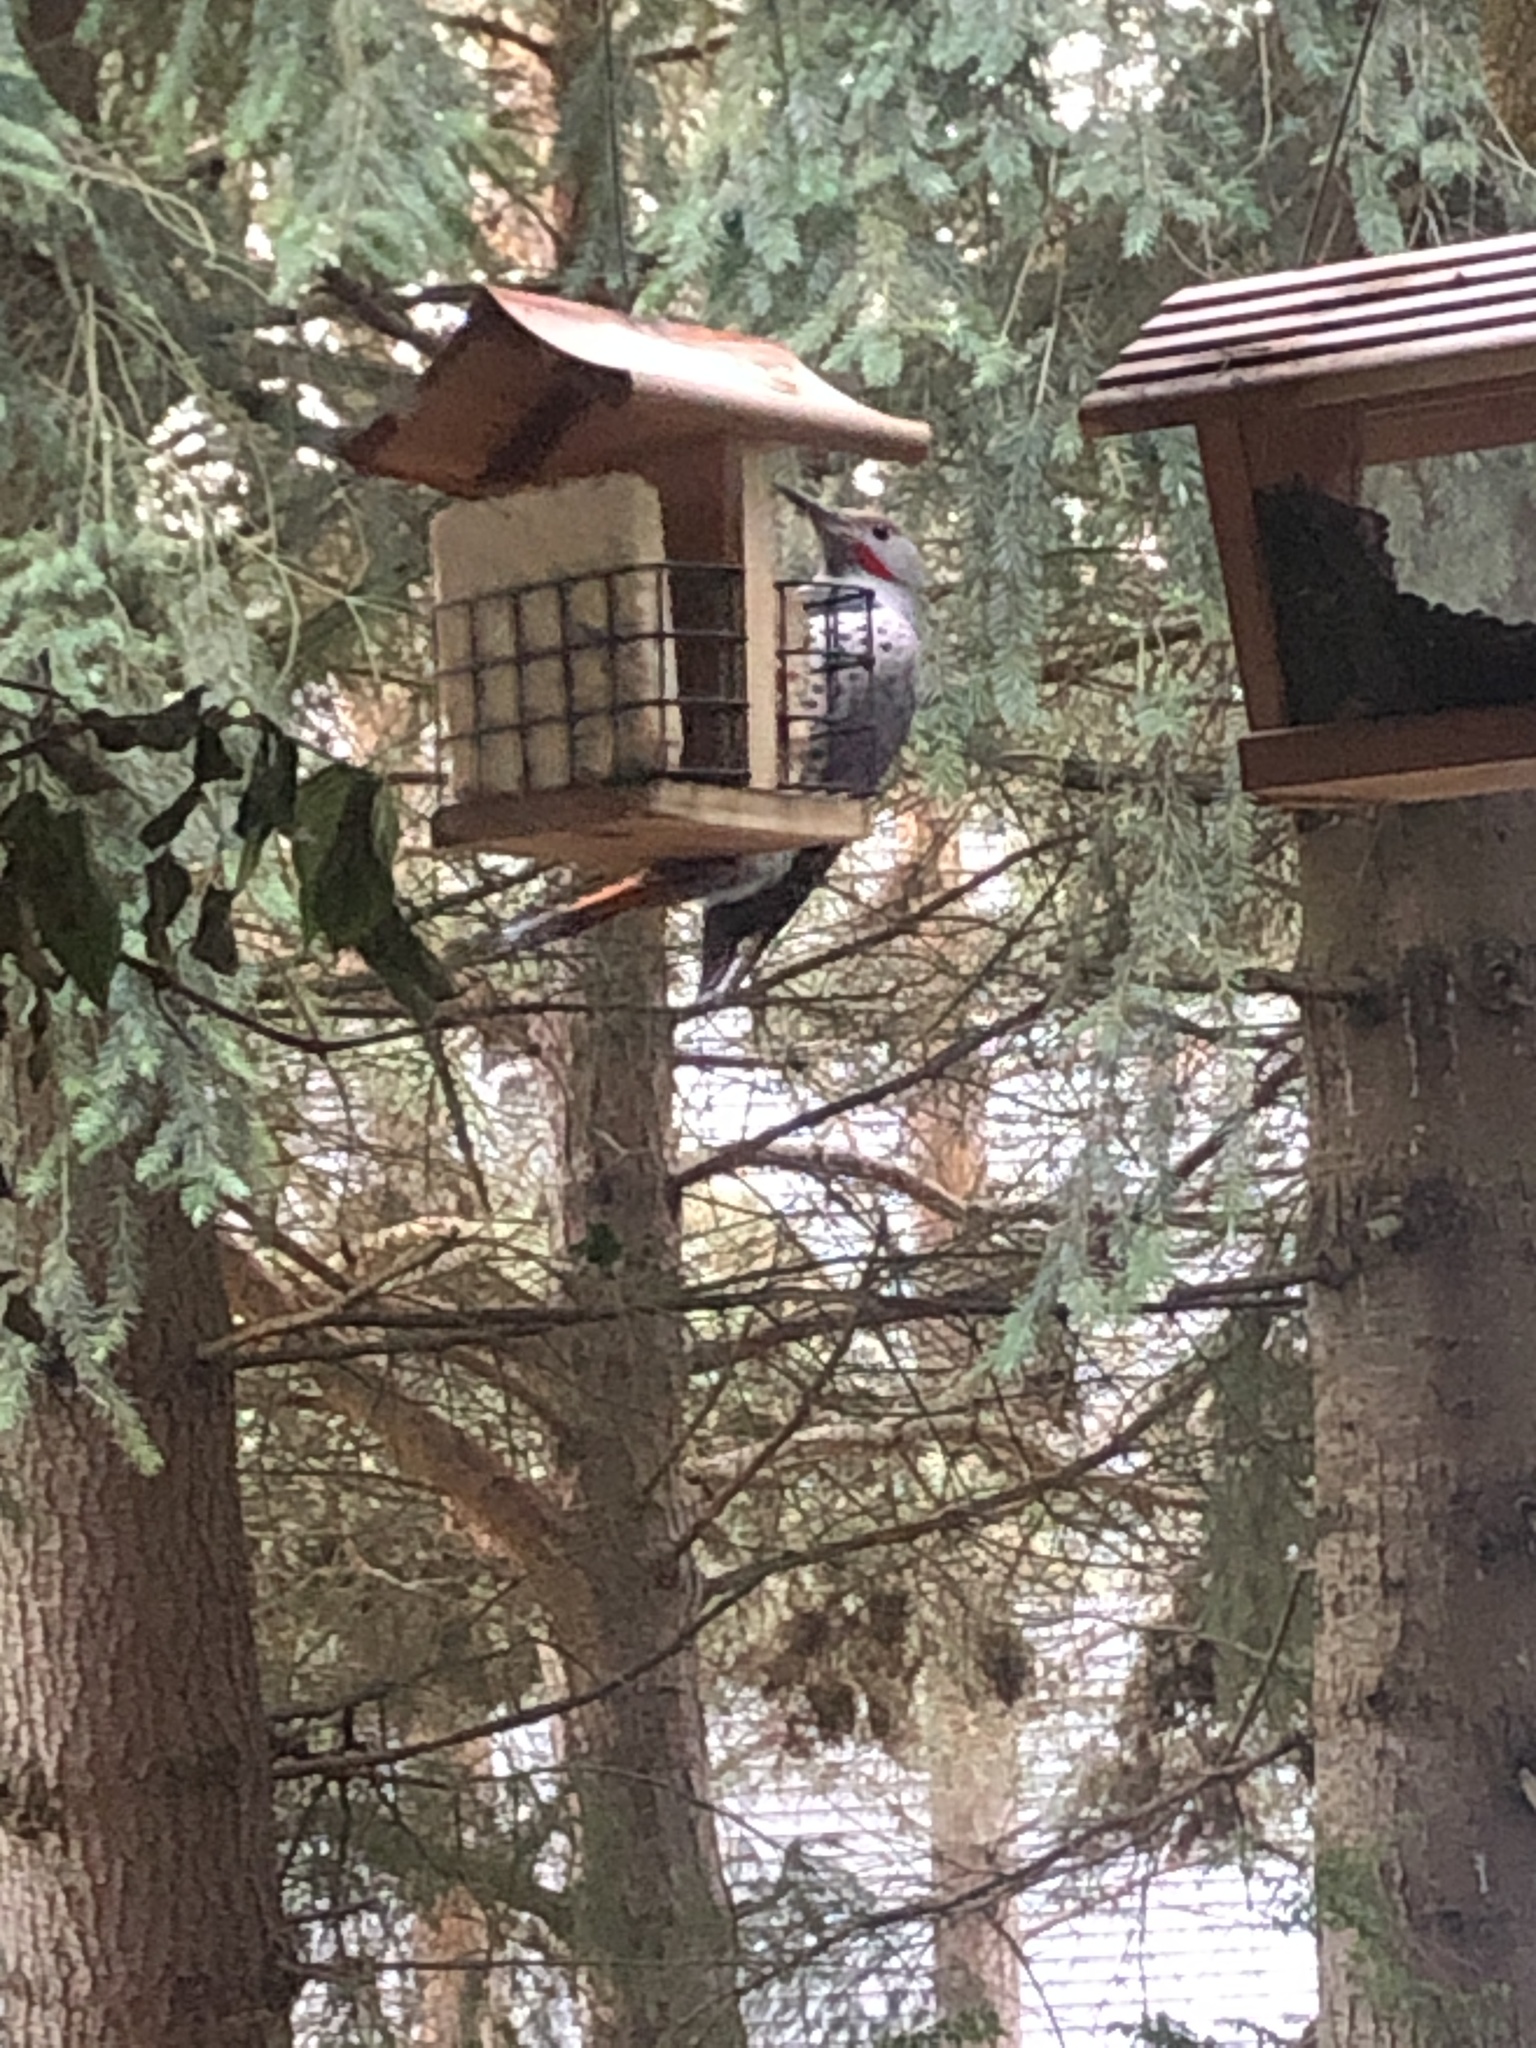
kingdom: Animalia
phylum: Chordata
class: Aves
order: Piciformes
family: Picidae
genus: Colaptes
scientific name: Colaptes auratus
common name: Northern flicker
